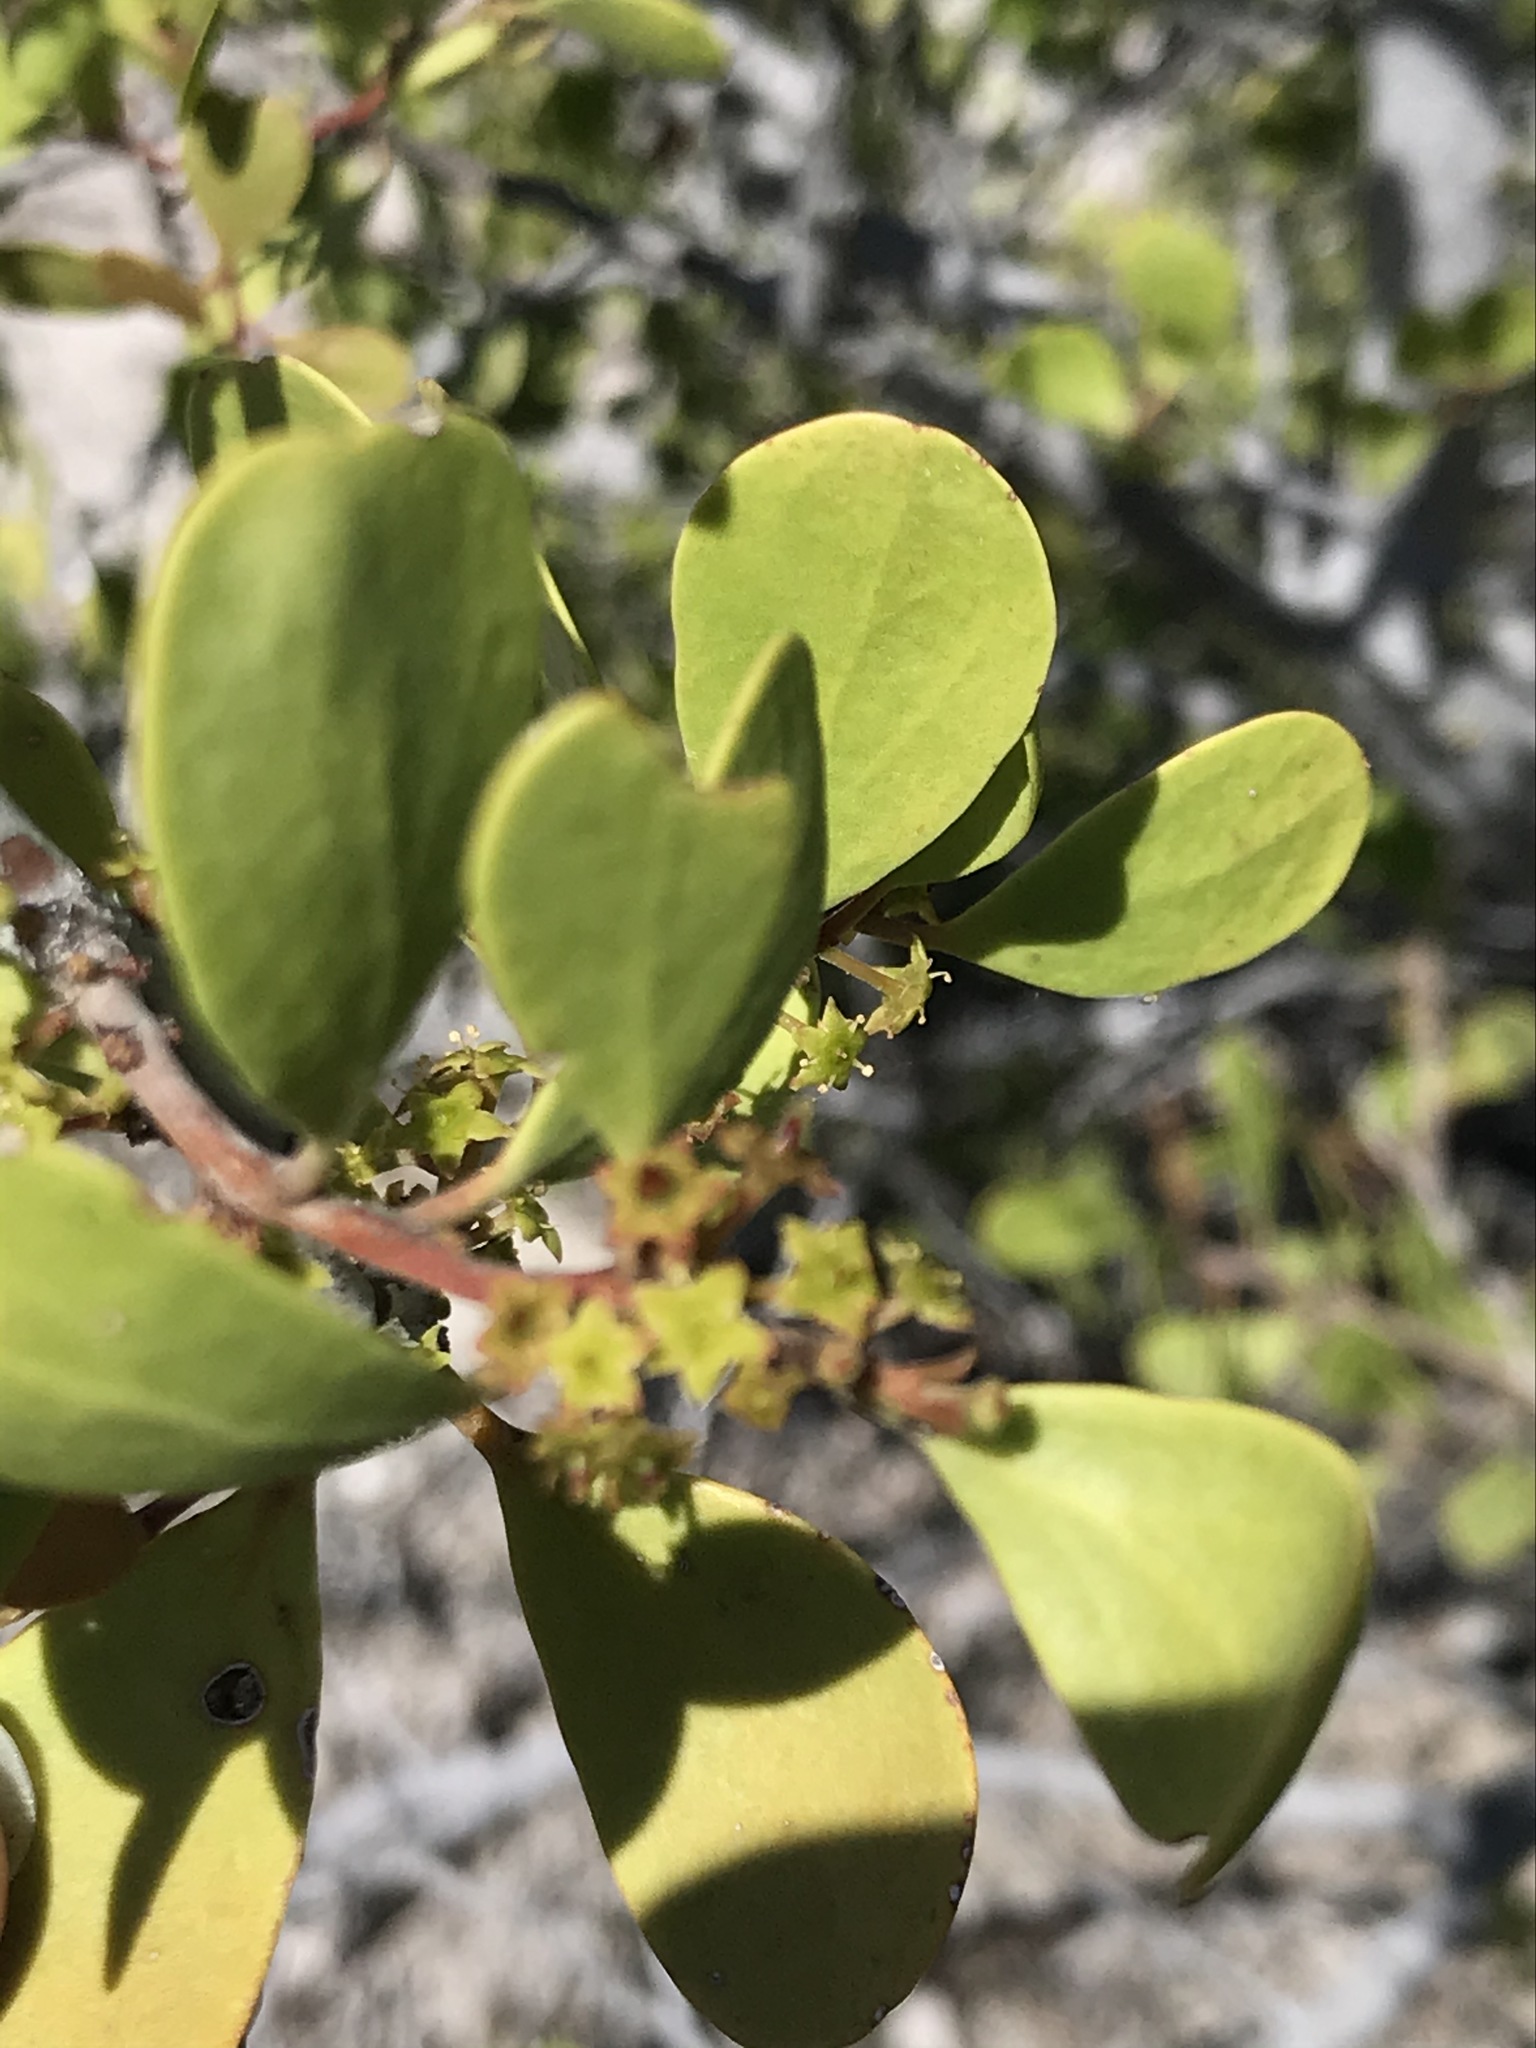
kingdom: Plantae
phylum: Tracheophyta
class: Magnoliopsida
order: Celastrales
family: Celastraceae
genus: Tricerma
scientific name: Tricerma phyllanthoides
